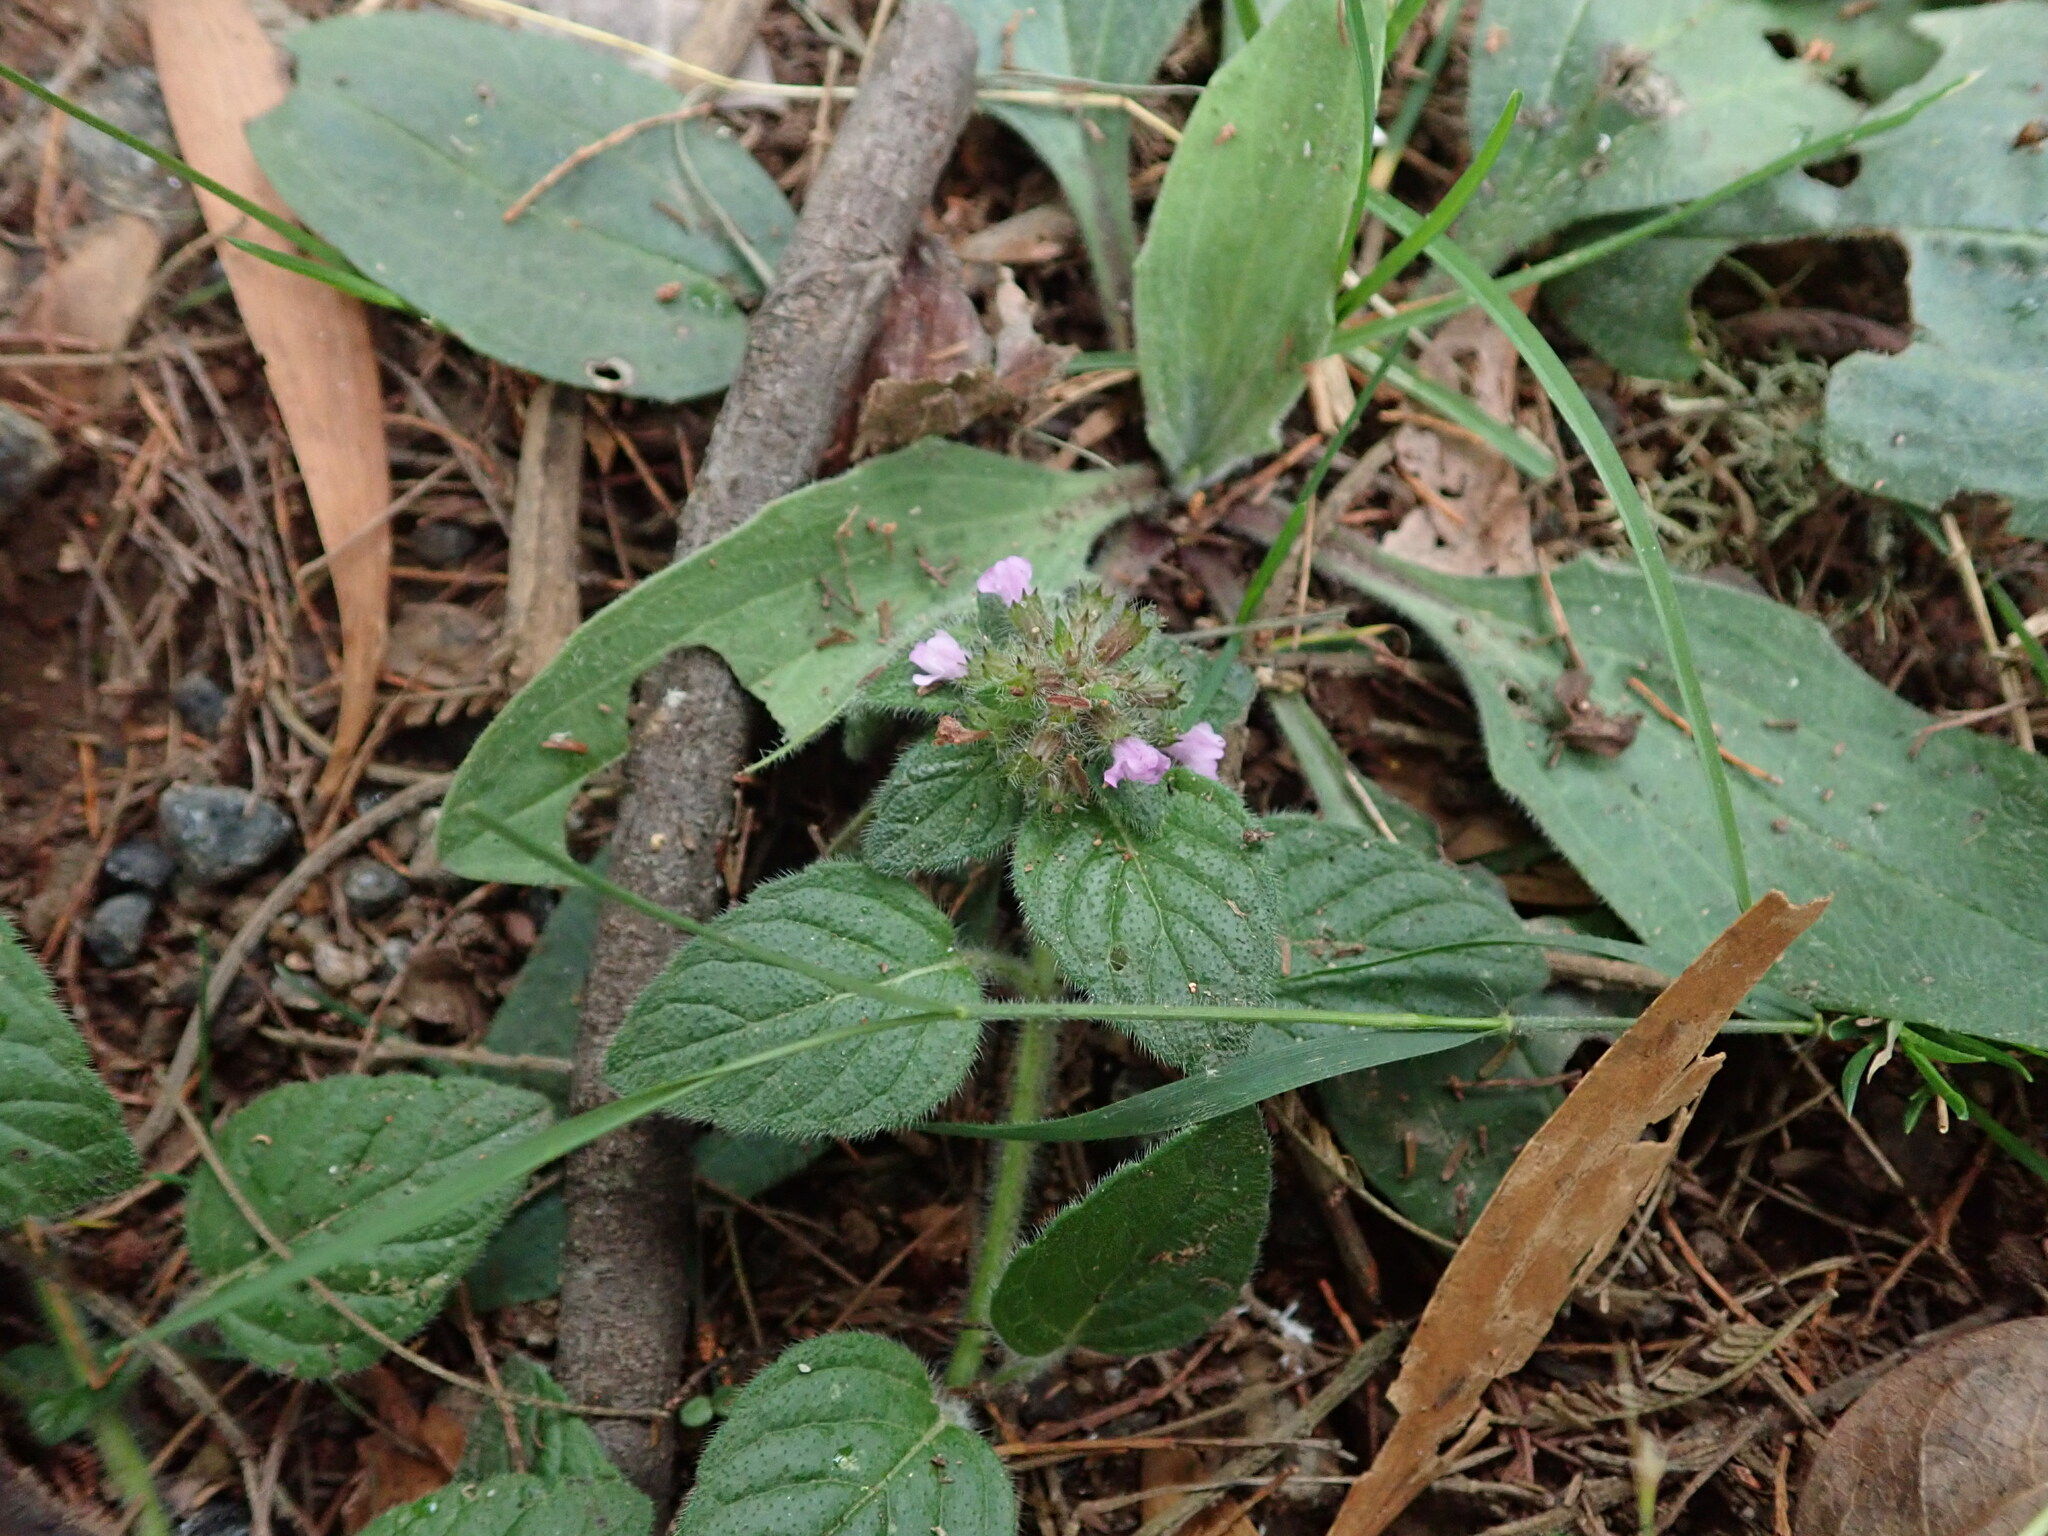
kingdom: Plantae
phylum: Tracheophyta
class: Magnoliopsida
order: Lamiales
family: Lamiaceae
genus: Clinopodium
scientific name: Clinopodium vulgare
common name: Wild basil
